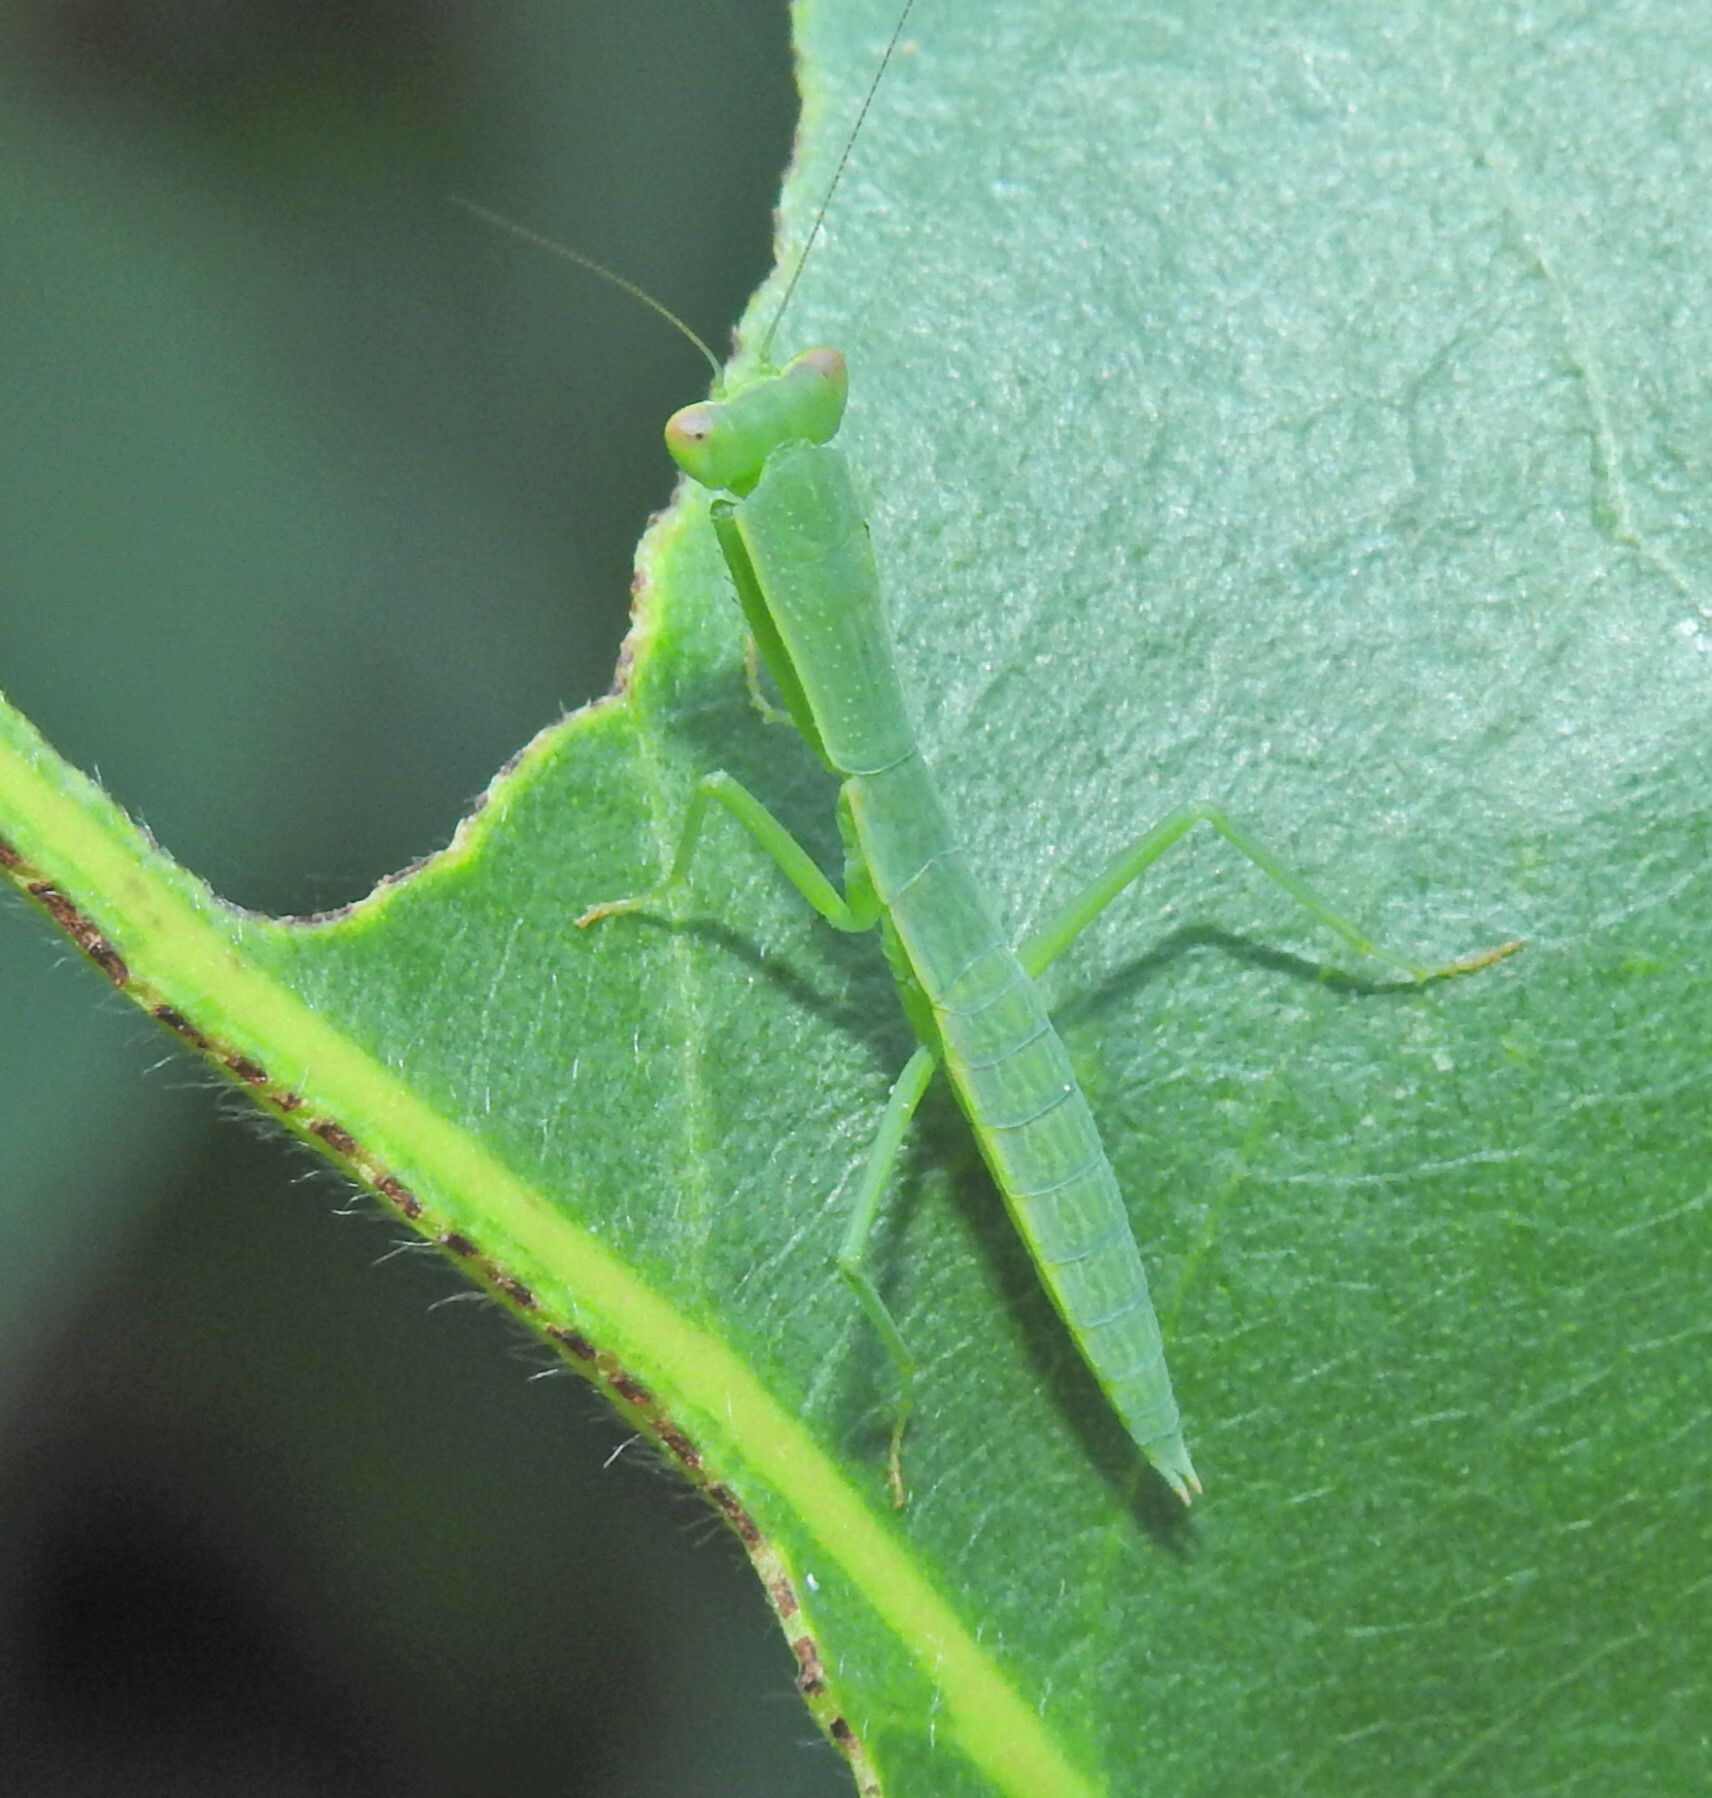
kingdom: Animalia
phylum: Arthropoda
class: Insecta
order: Mantodea
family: Mantidae
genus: Orthodera
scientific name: Orthodera ministralis
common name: Mantis
